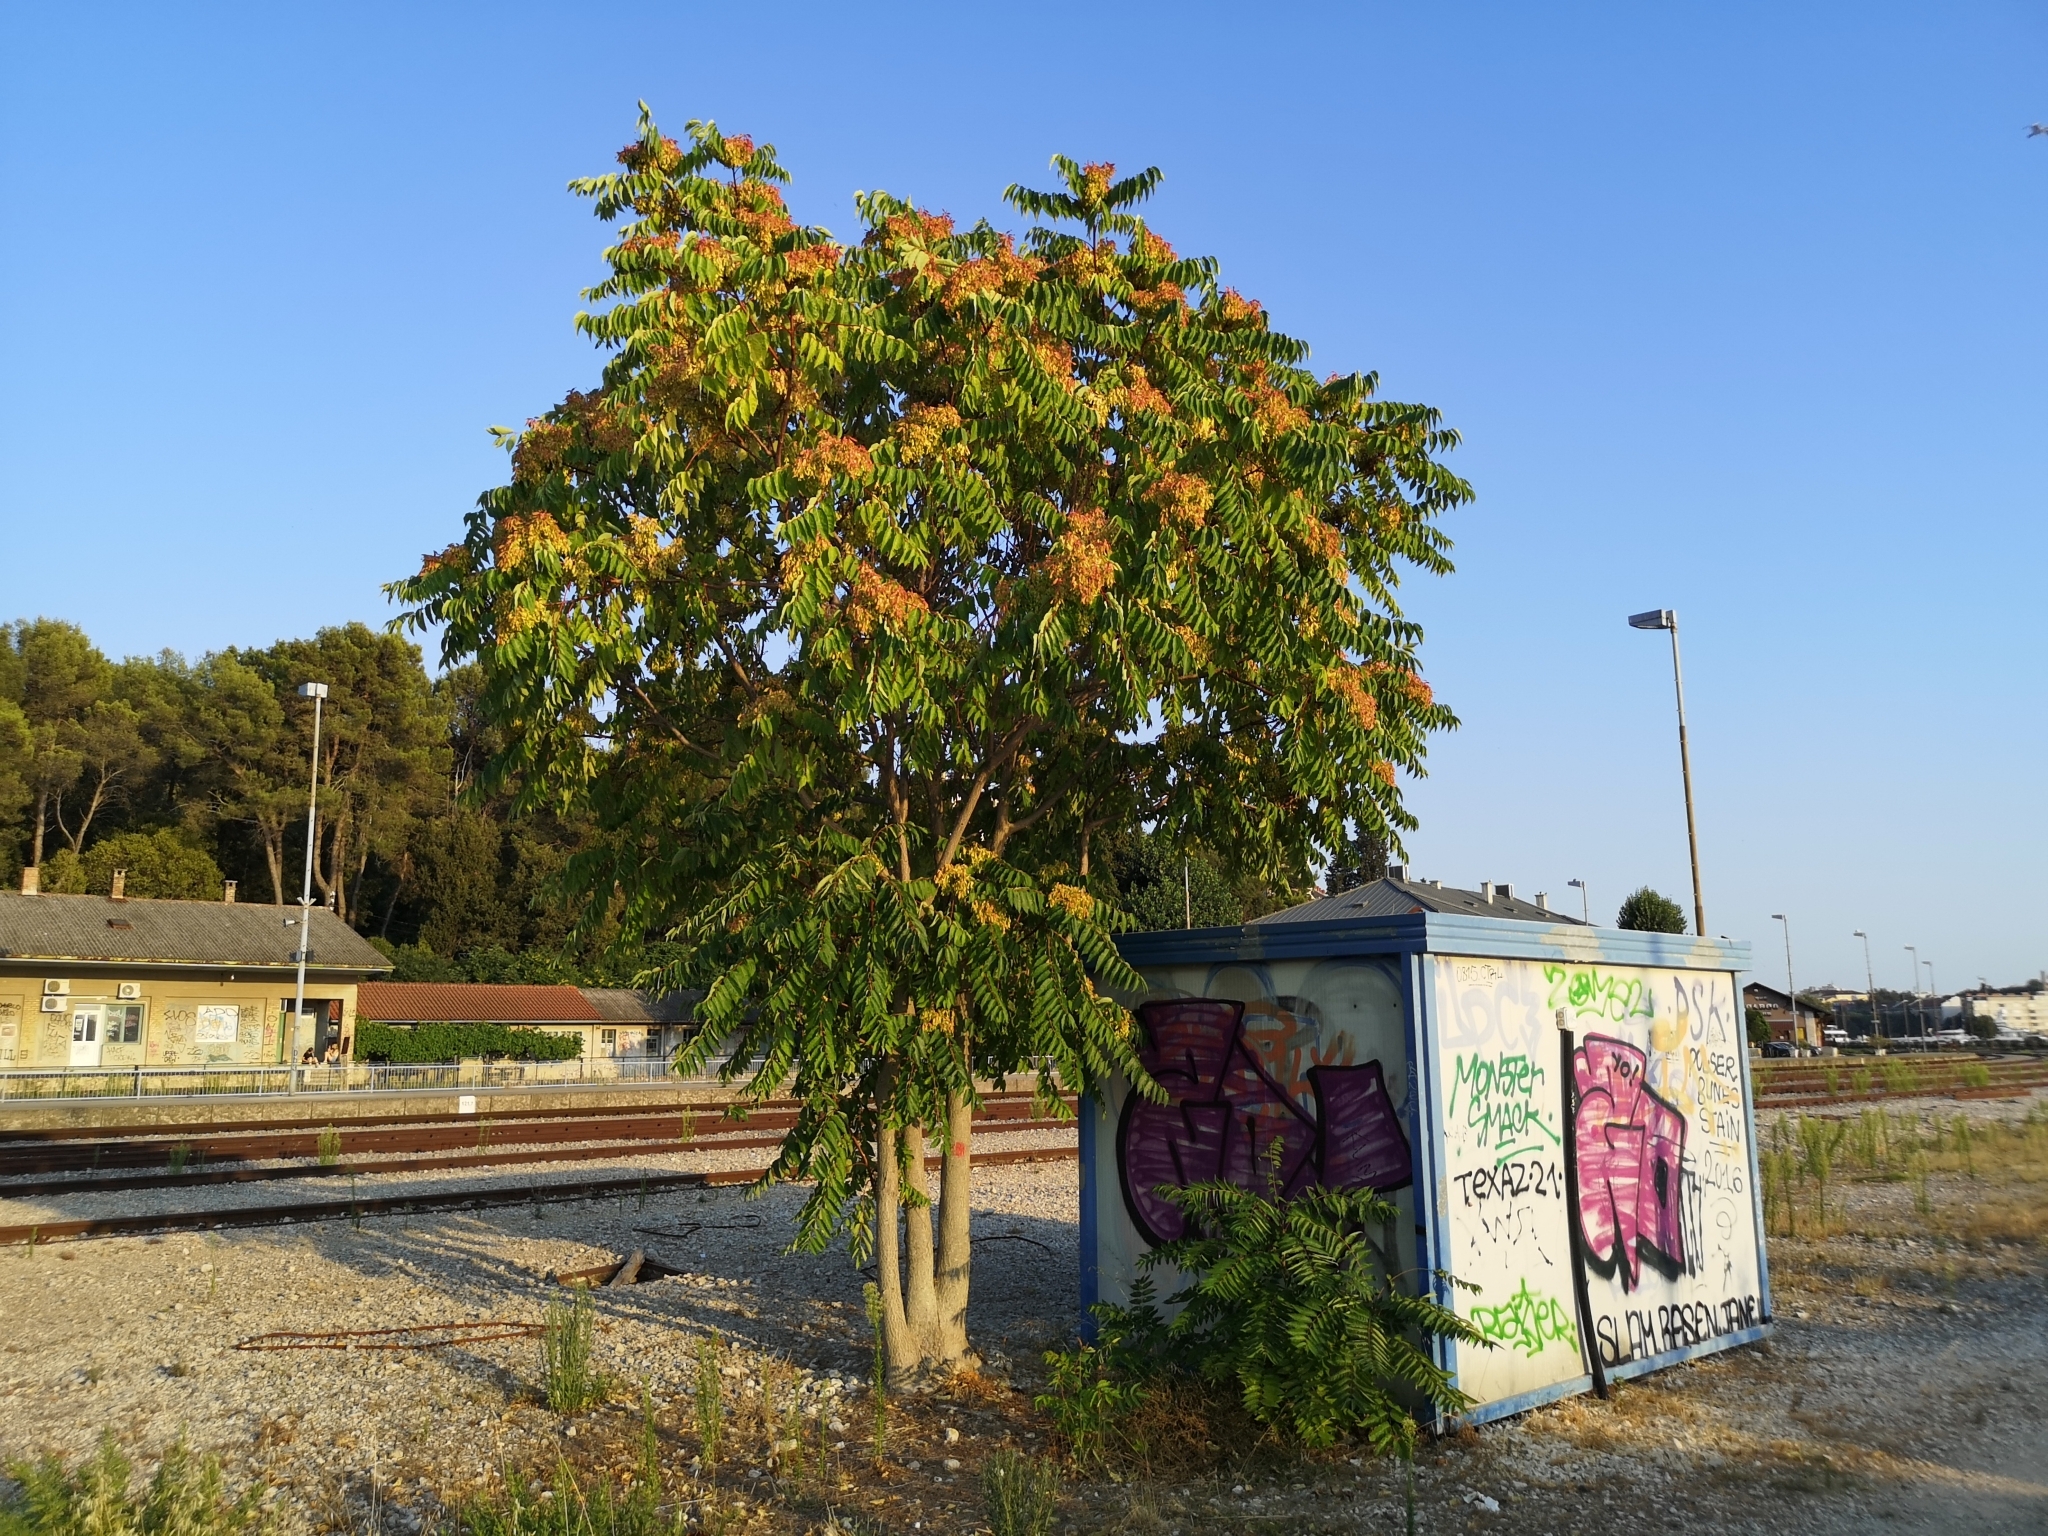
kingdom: Plantae
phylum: Tracheophyta
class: Magnoliopsida
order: Sapindales
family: Simaroubaceae
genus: Ailanthus
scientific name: Ailanthus altissima
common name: Tree-of-heaven
